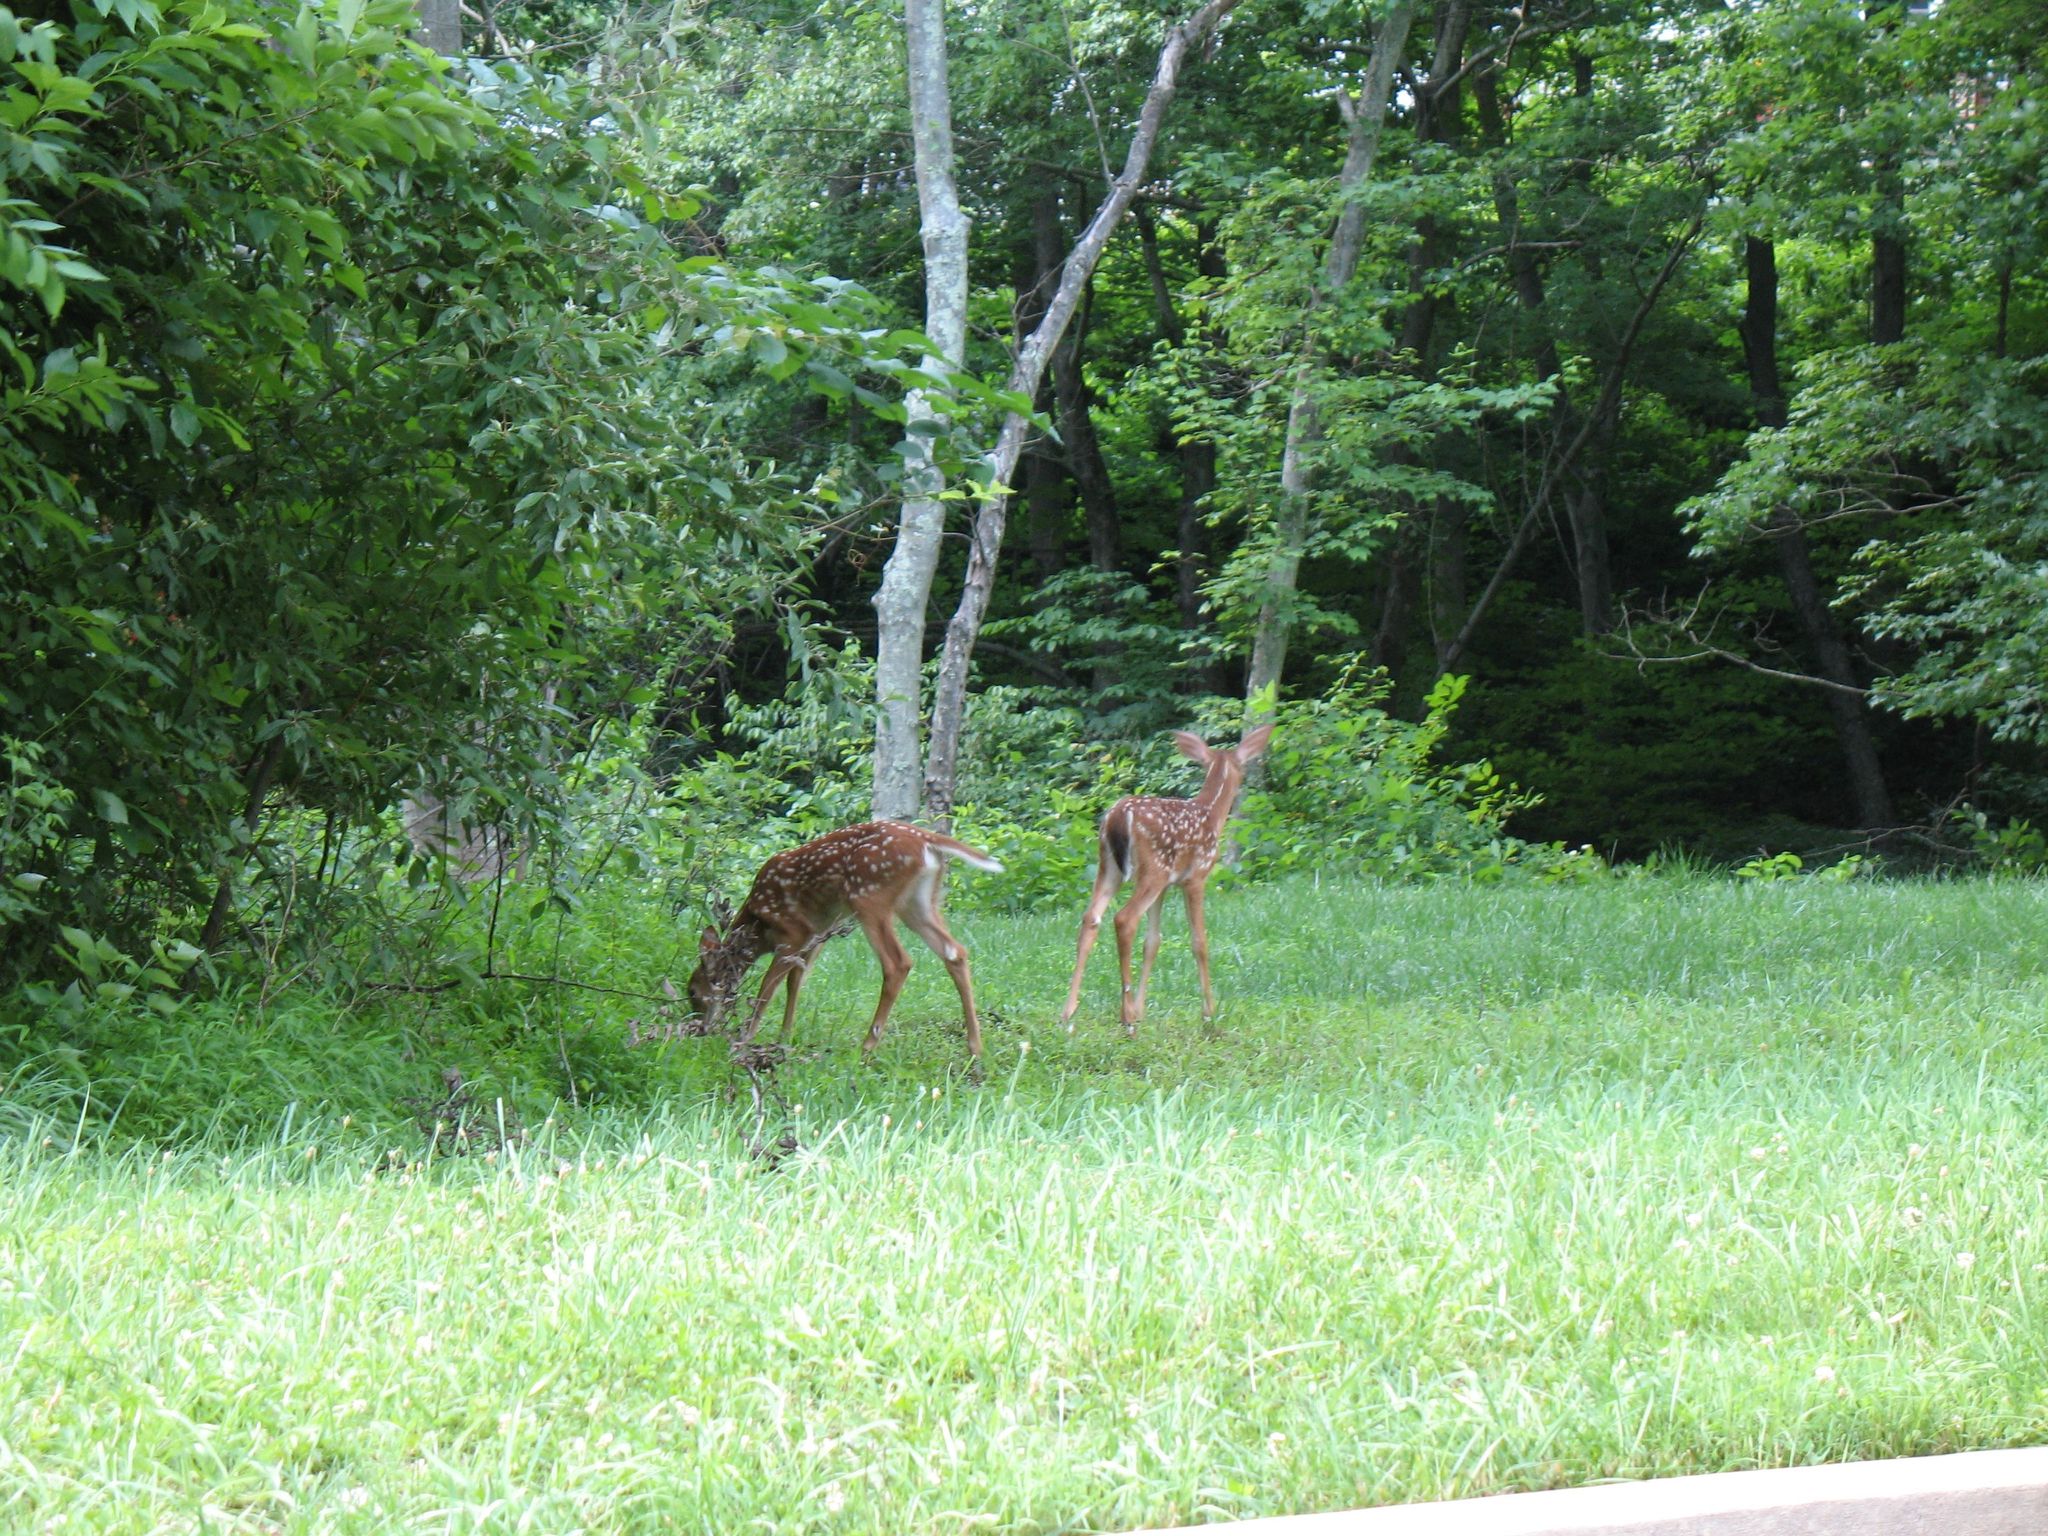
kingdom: Animalia
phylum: Chordata
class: Mammalia
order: Artiodactyla
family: Cervidae
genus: Odocoileus
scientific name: Odocoileus virginianus
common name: White-tailed deer
